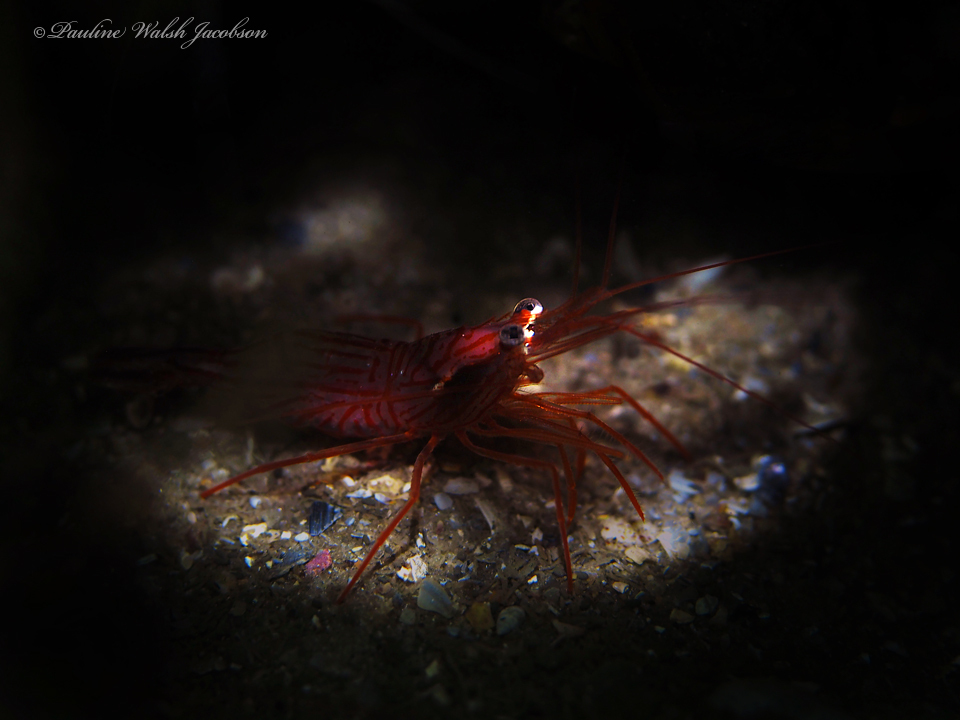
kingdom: Animalia
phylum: Arthropoda
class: Malacostraca
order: Decapoda
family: Lysmatidae
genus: Lysmata
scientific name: Lysmata rafa
